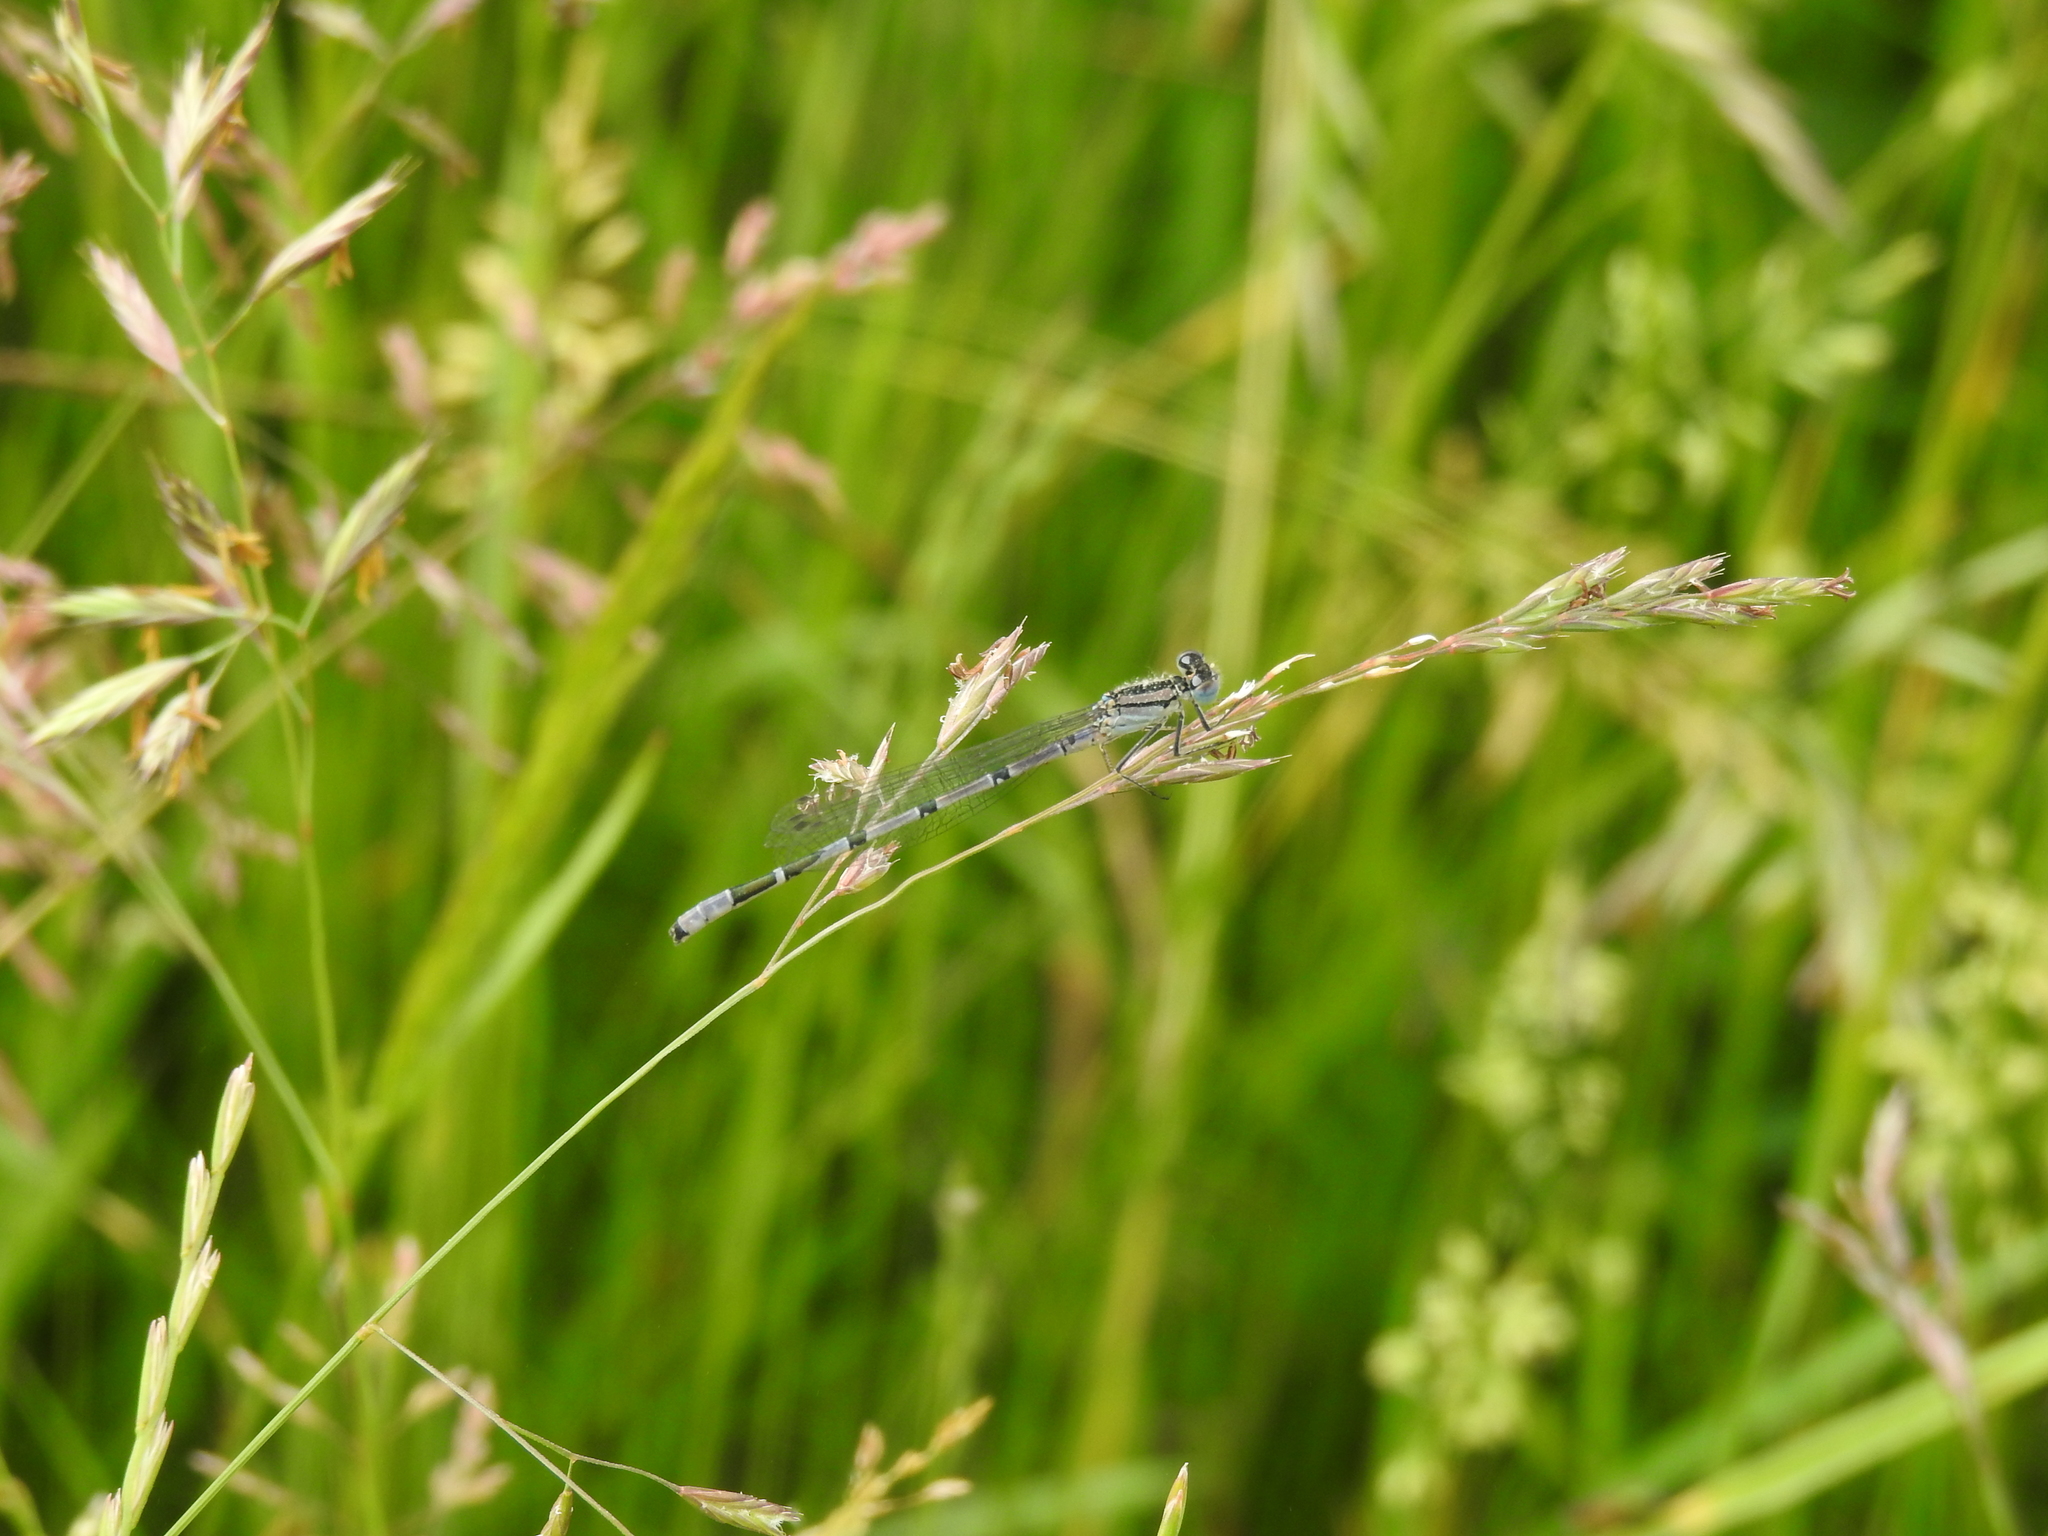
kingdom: Animalia
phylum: Arthropoda
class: Insecta
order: Odonata
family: Coenagrionidae
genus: Enallagma
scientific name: Enallagma cyathigerum
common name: Common blue damselfly
